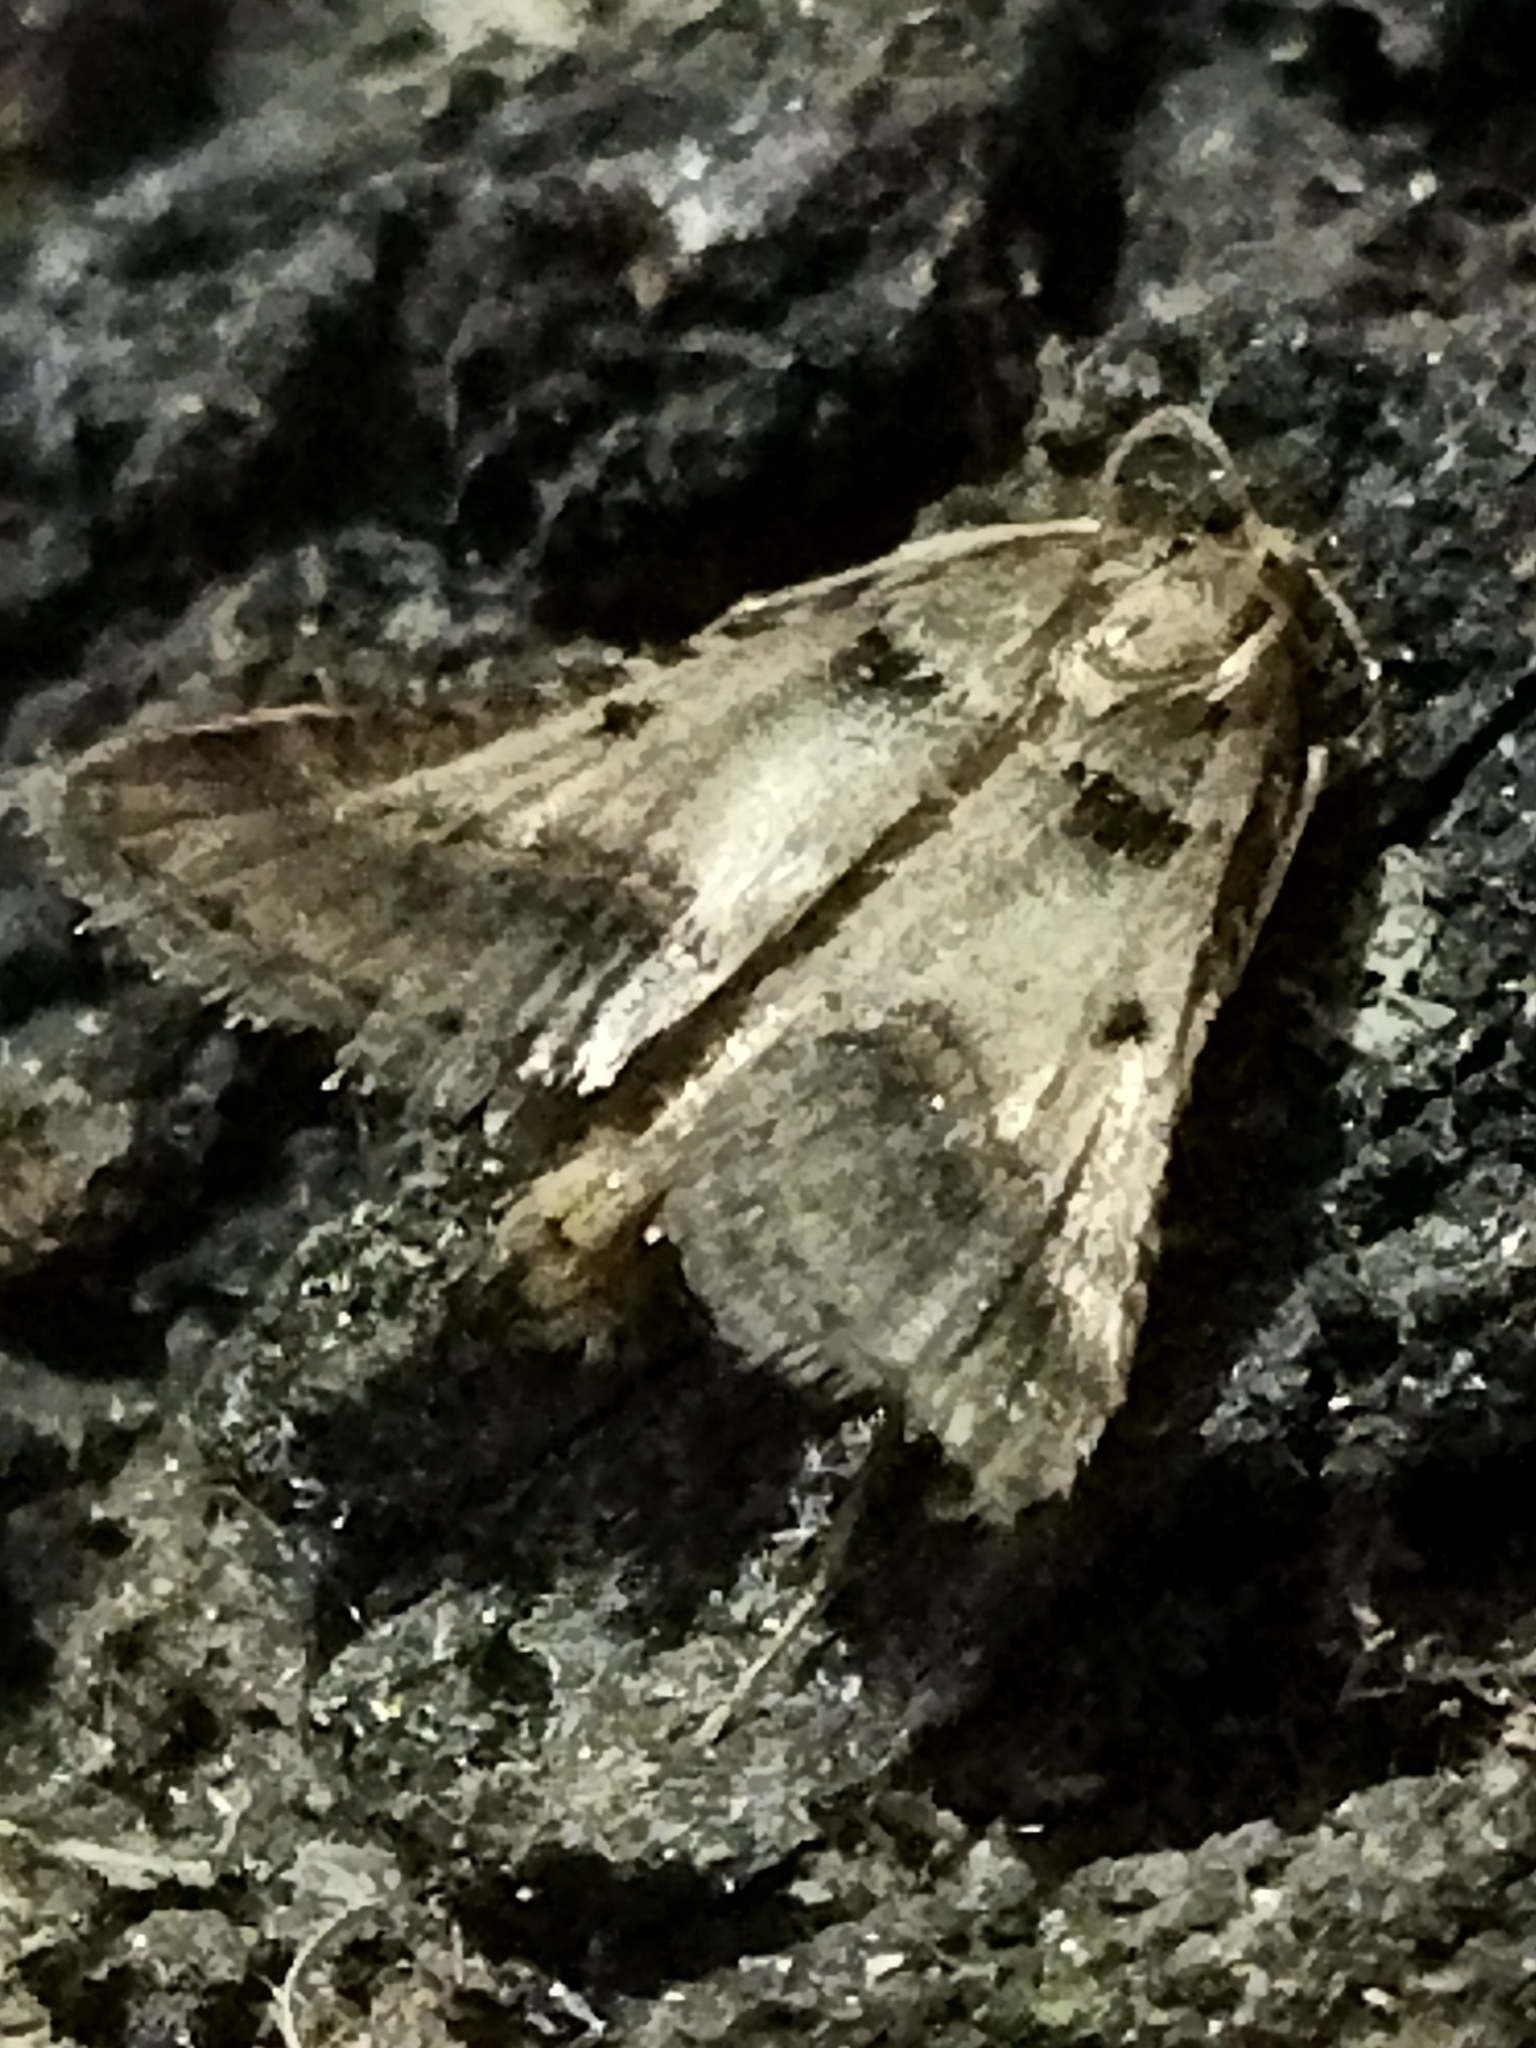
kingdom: Animalia
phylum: Arthropoda
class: Insecta
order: Lepidoptera
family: Pyralidae
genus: Stemmatophora
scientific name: Stemmatophora brunnealis
